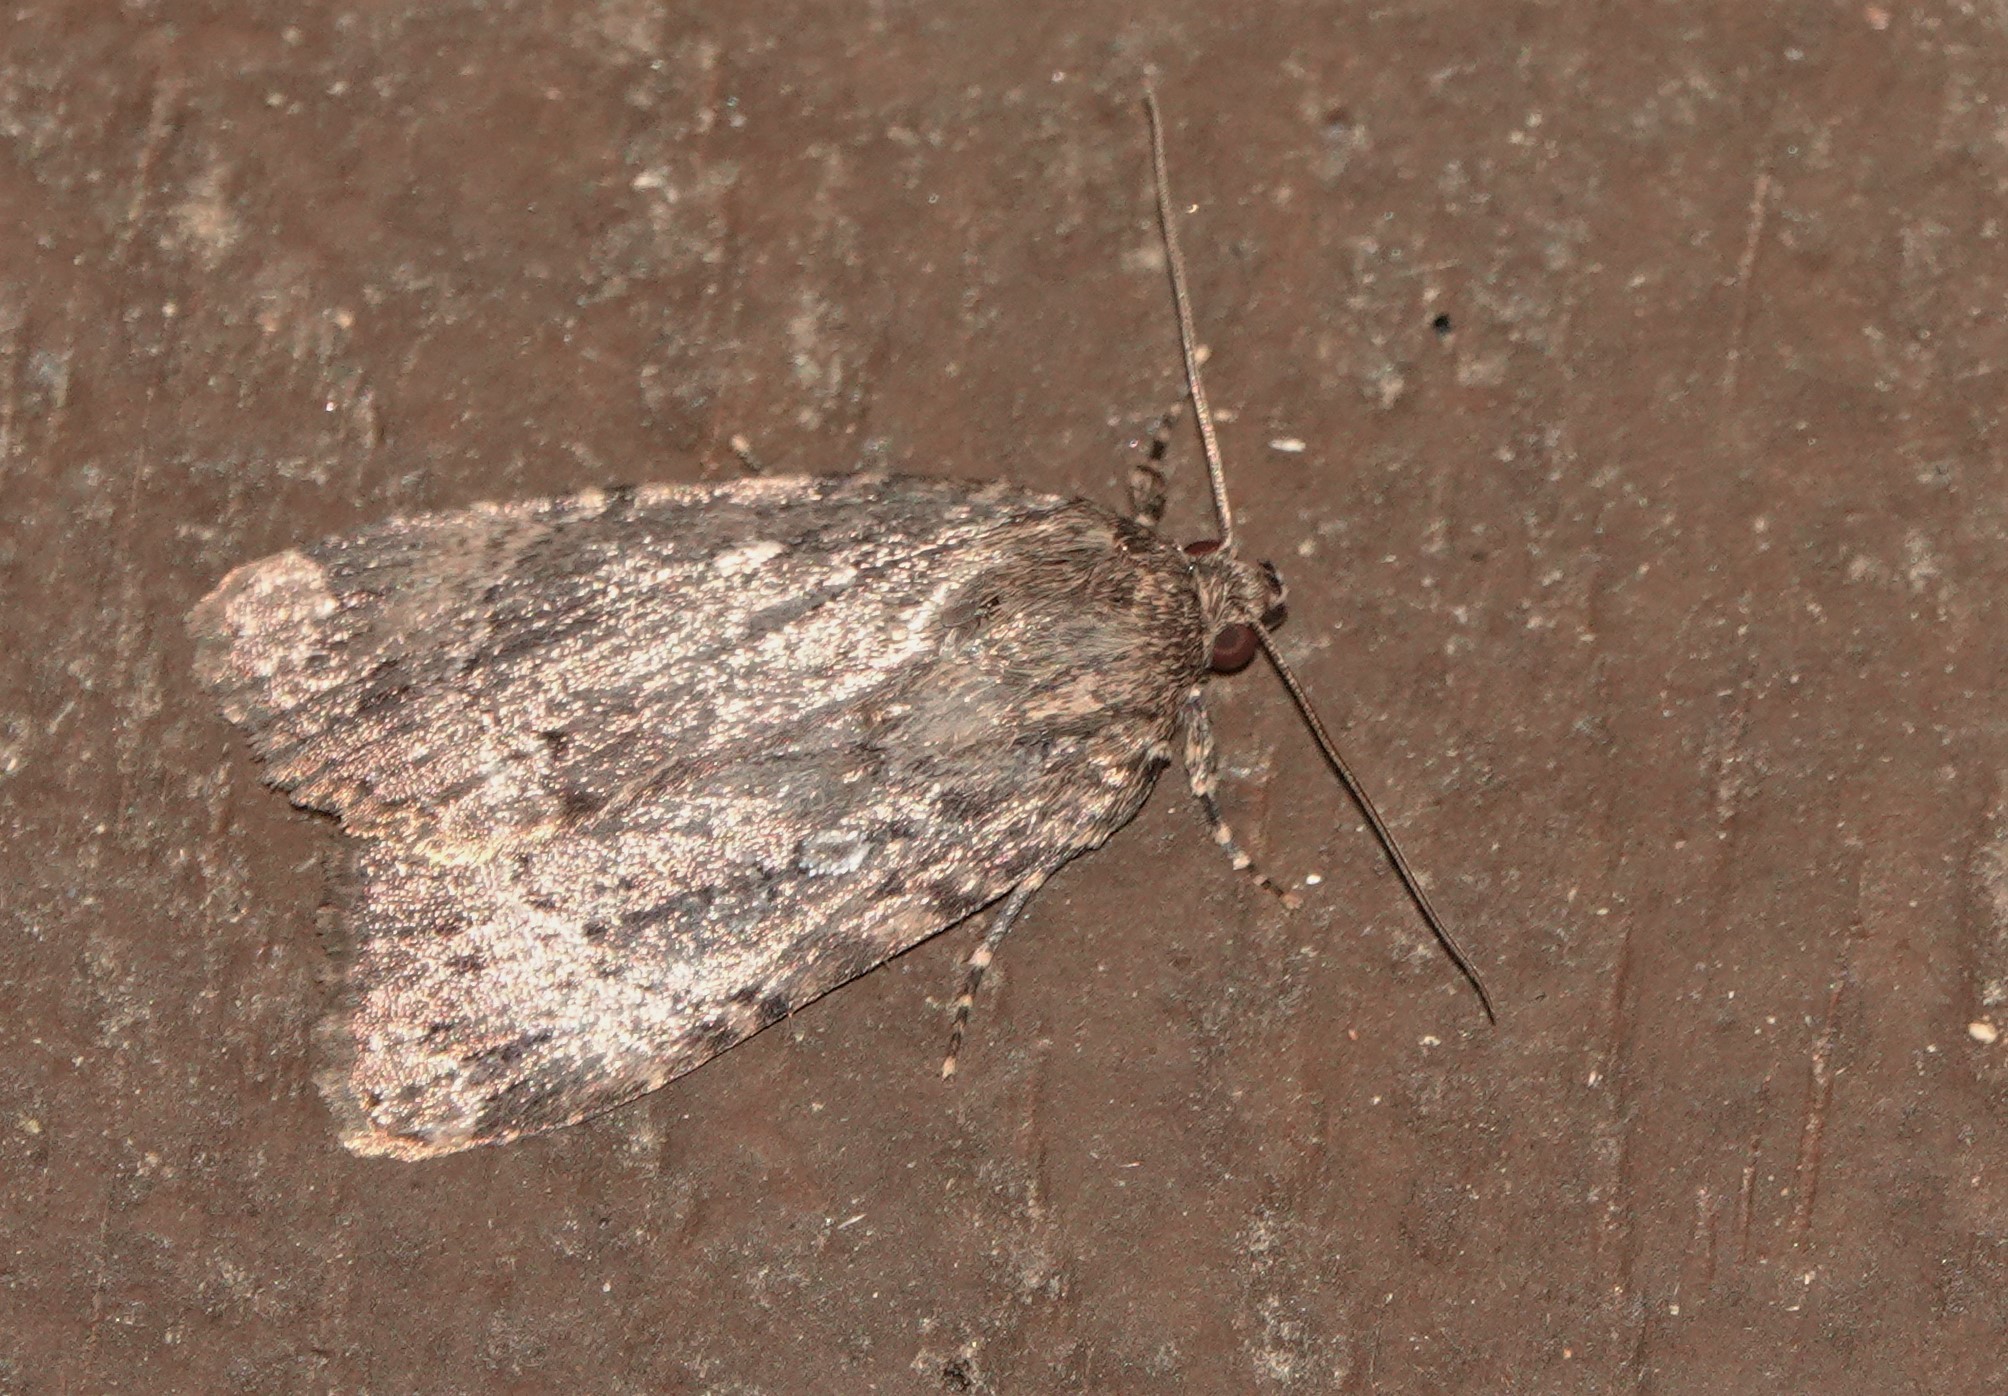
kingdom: Animalia
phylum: Arthropoda
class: Insecta
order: Lepidoptera
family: Noctuidae
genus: Amphipyra
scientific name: Amphipyra pyramidoides
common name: American copper underwing
